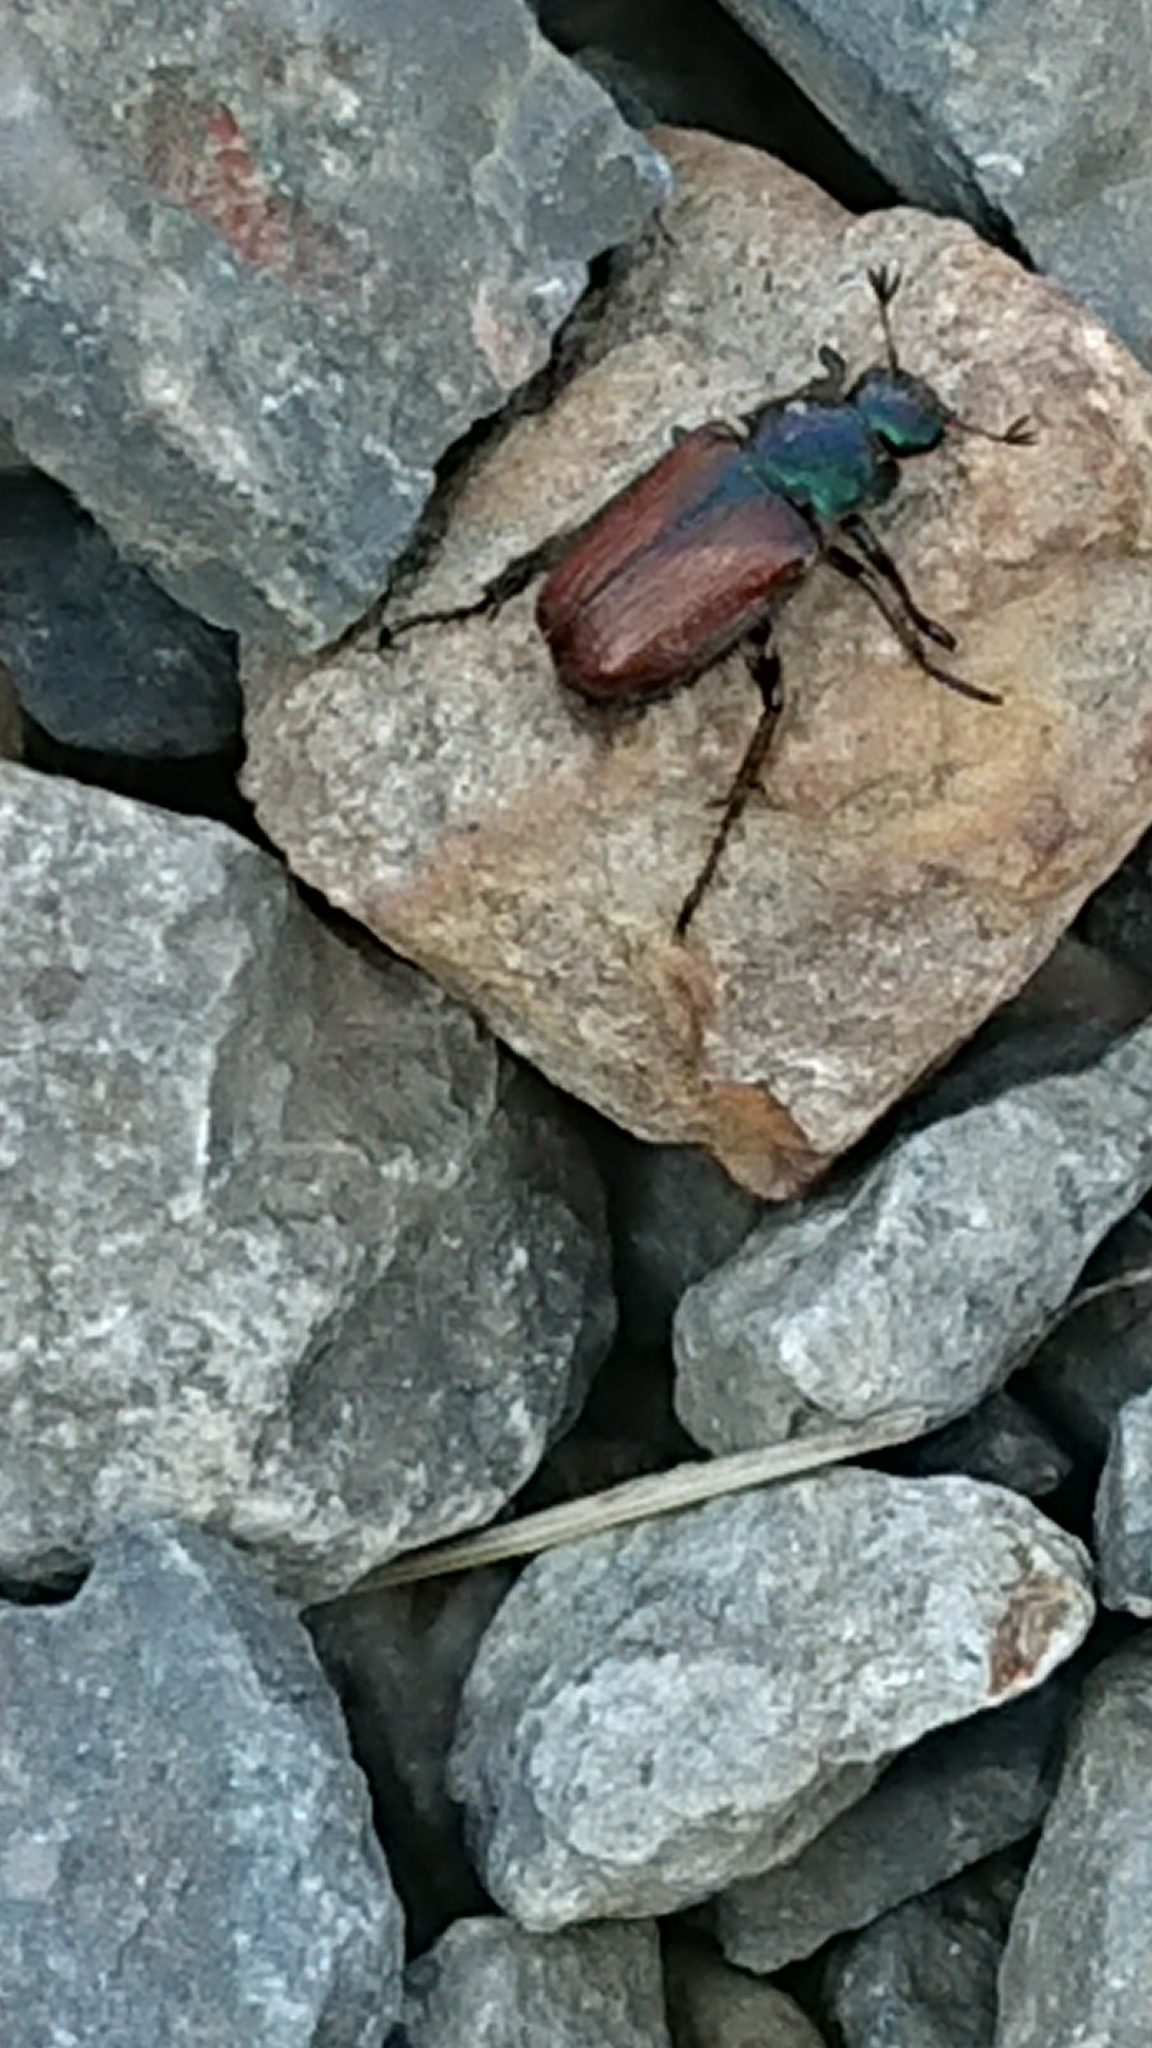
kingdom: Animalia
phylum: Arthropoda
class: Insecta
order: Coleoptera
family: Scarabaeidae
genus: Phyllopertha
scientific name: Phyllopertha horticola
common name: Garden chafer
